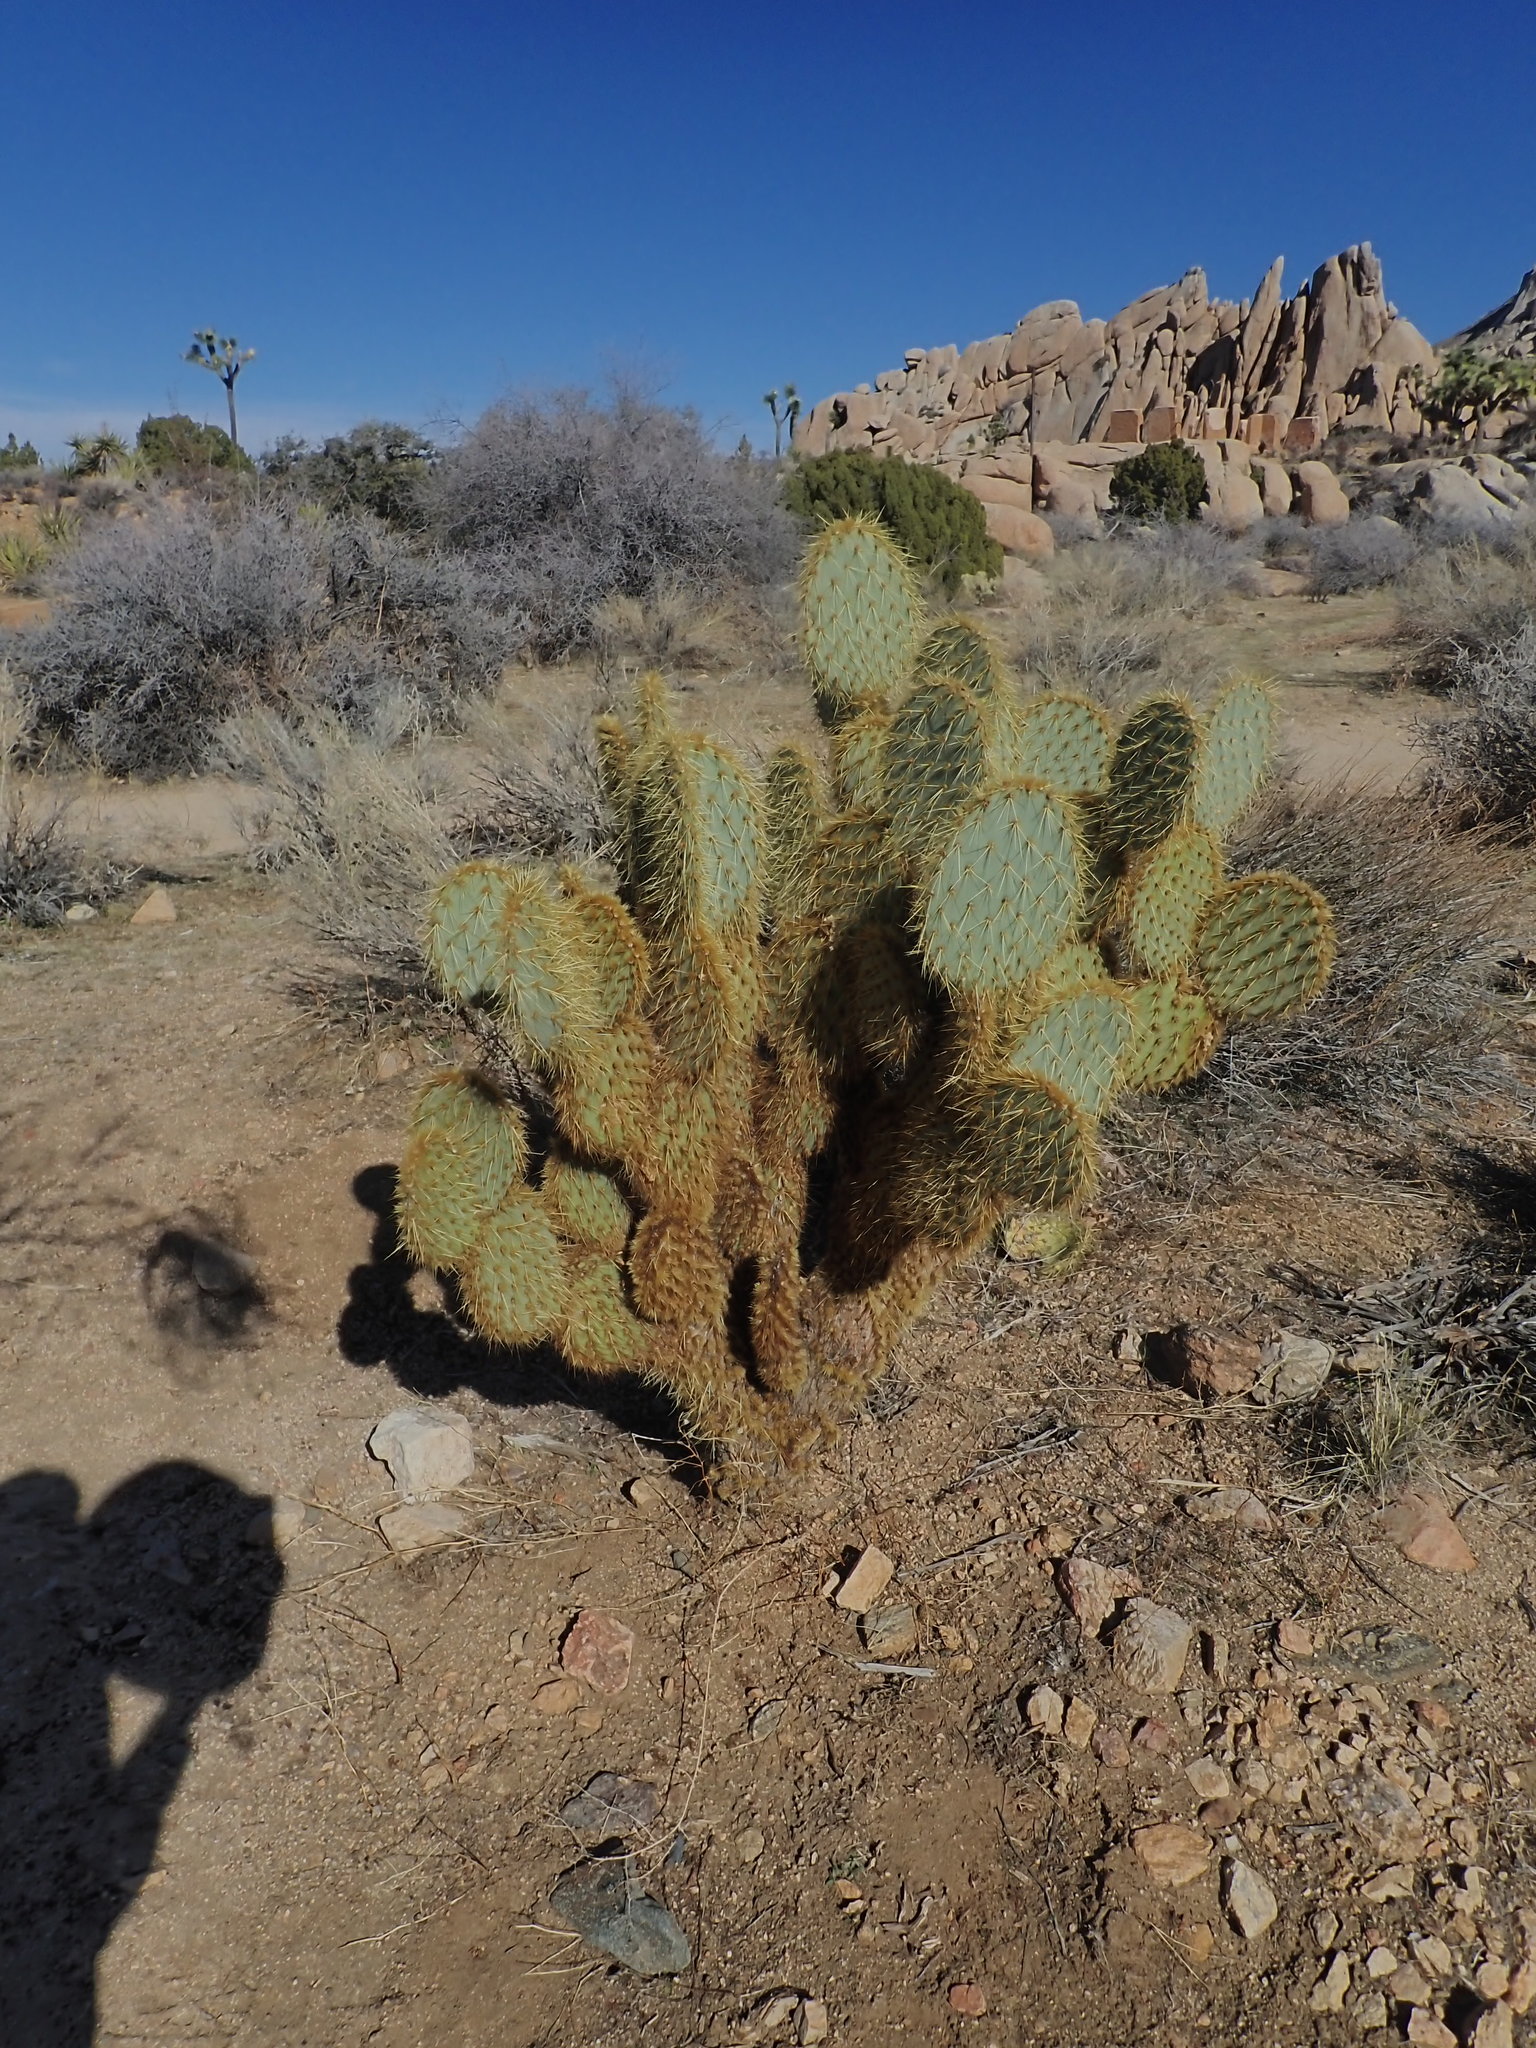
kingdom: Plantae
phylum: Tracheophyta
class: Magnoliopsida
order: Caryophyllales
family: Cactaceae
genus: Opuntia
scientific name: Opuntia chlorotica
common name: Dollar-joint prickly-pear
